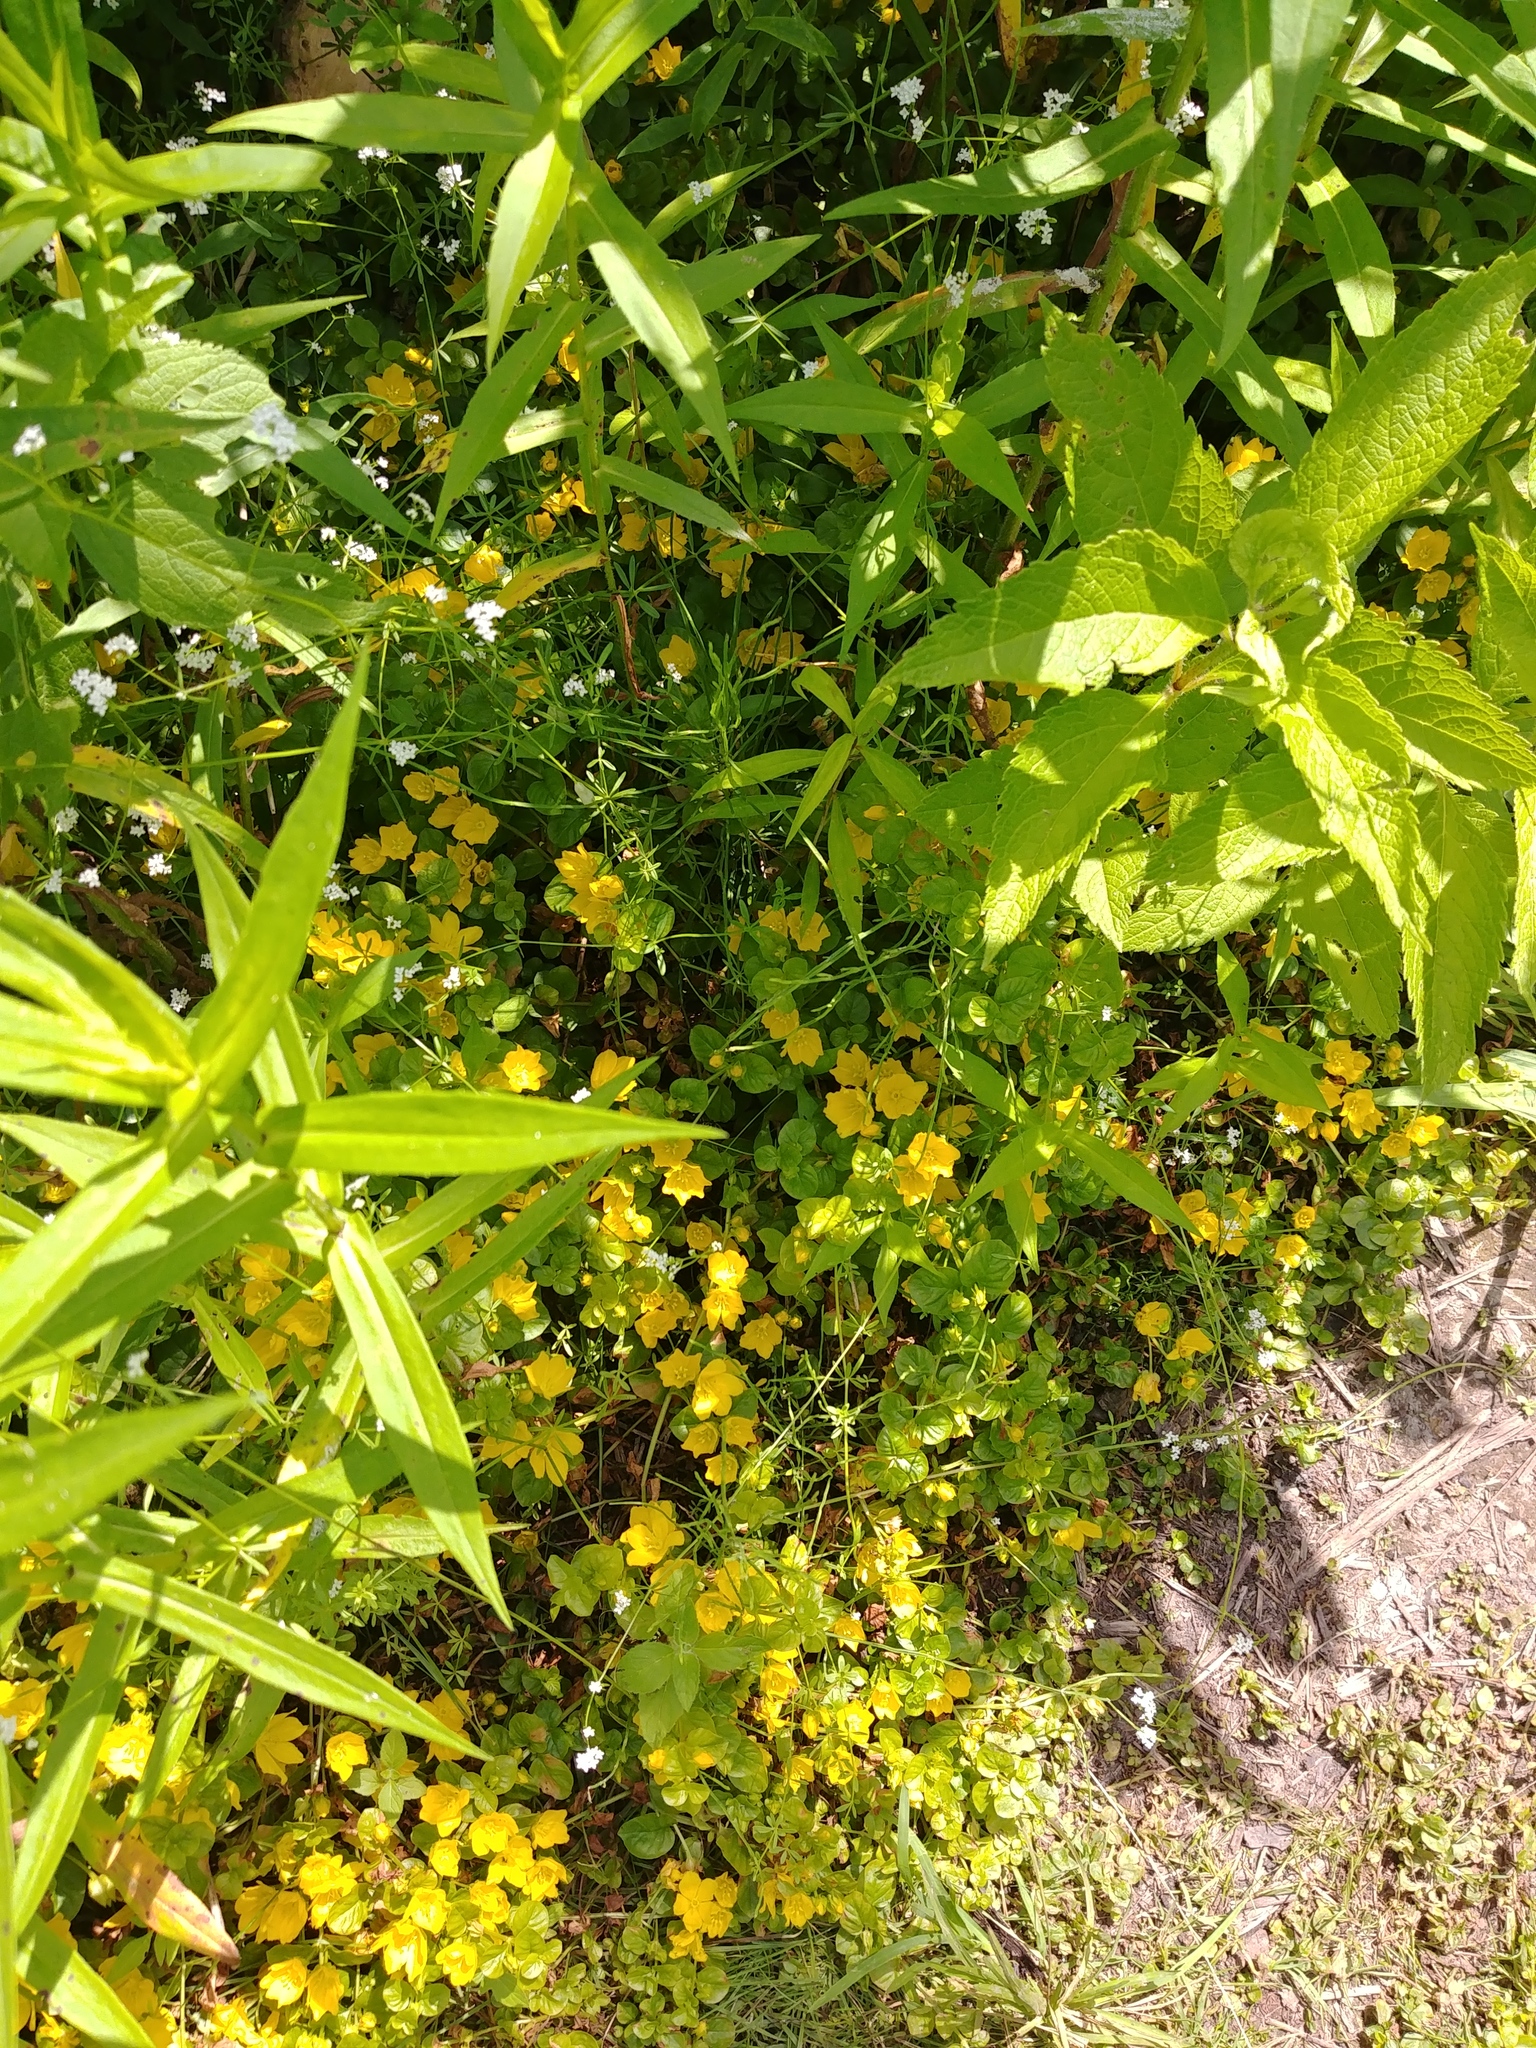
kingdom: Plantae
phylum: Tracheophyta
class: Magnoliopsida
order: Ericales
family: Primulaceae
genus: Lysimachia
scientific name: Lysimachia nummularia
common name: Moneywort
